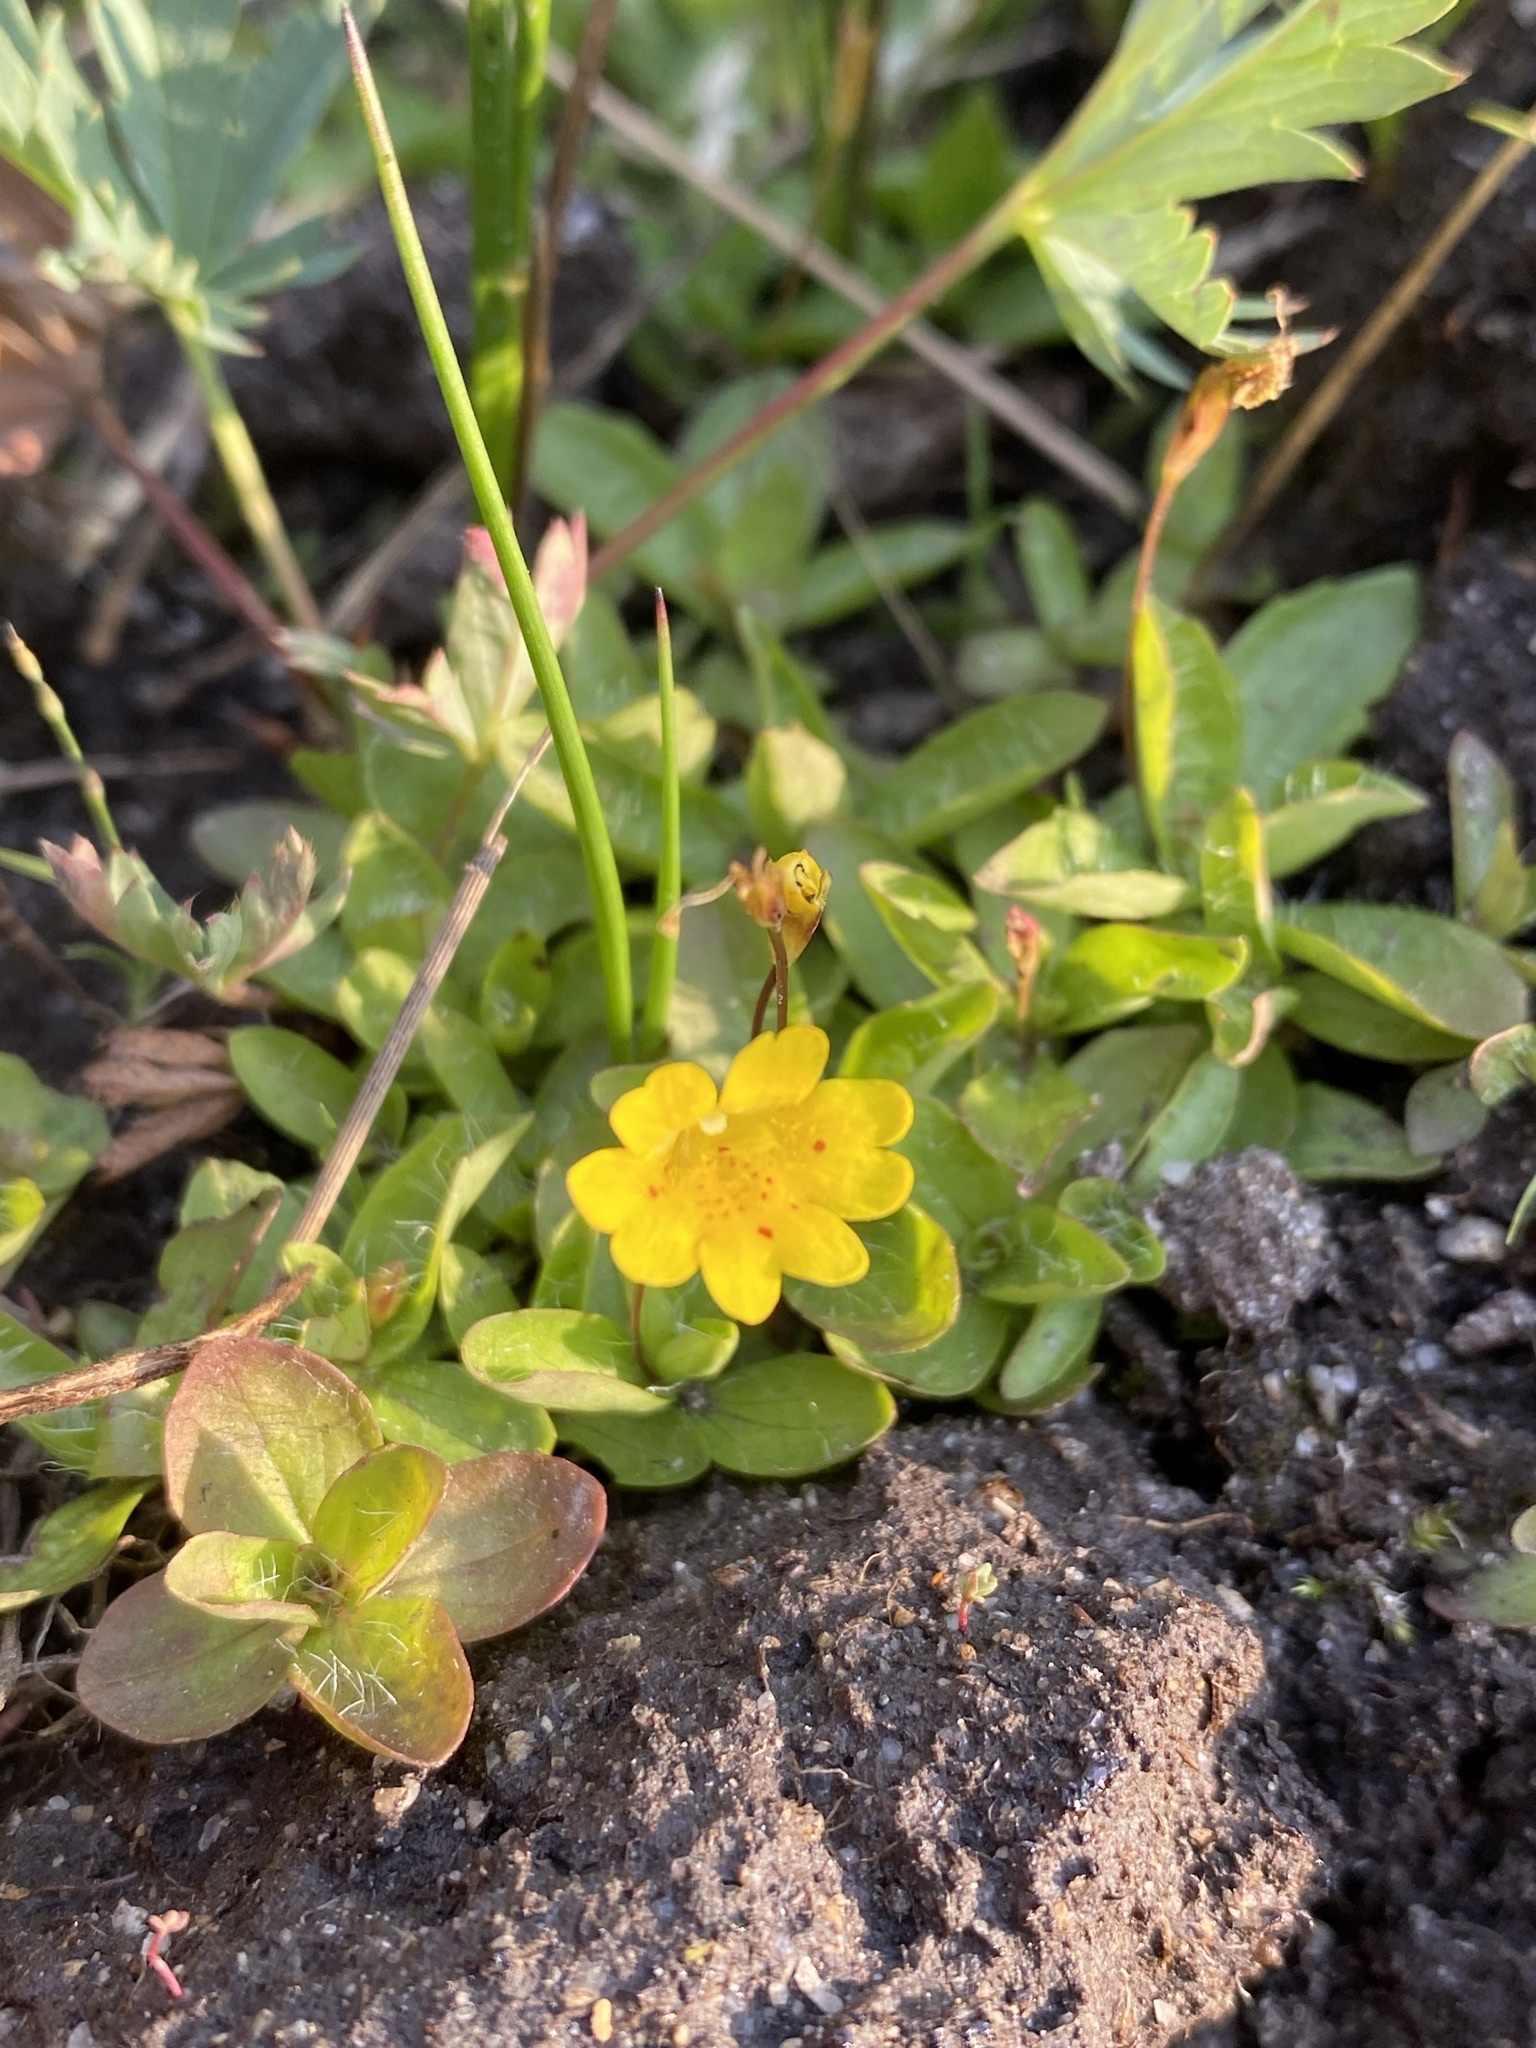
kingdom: Plantae
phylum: Tracheophyta
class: Magnoliopsida
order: Lamiales
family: Phrymaceae
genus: Erythranthe
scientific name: Erythranthe primuloides
